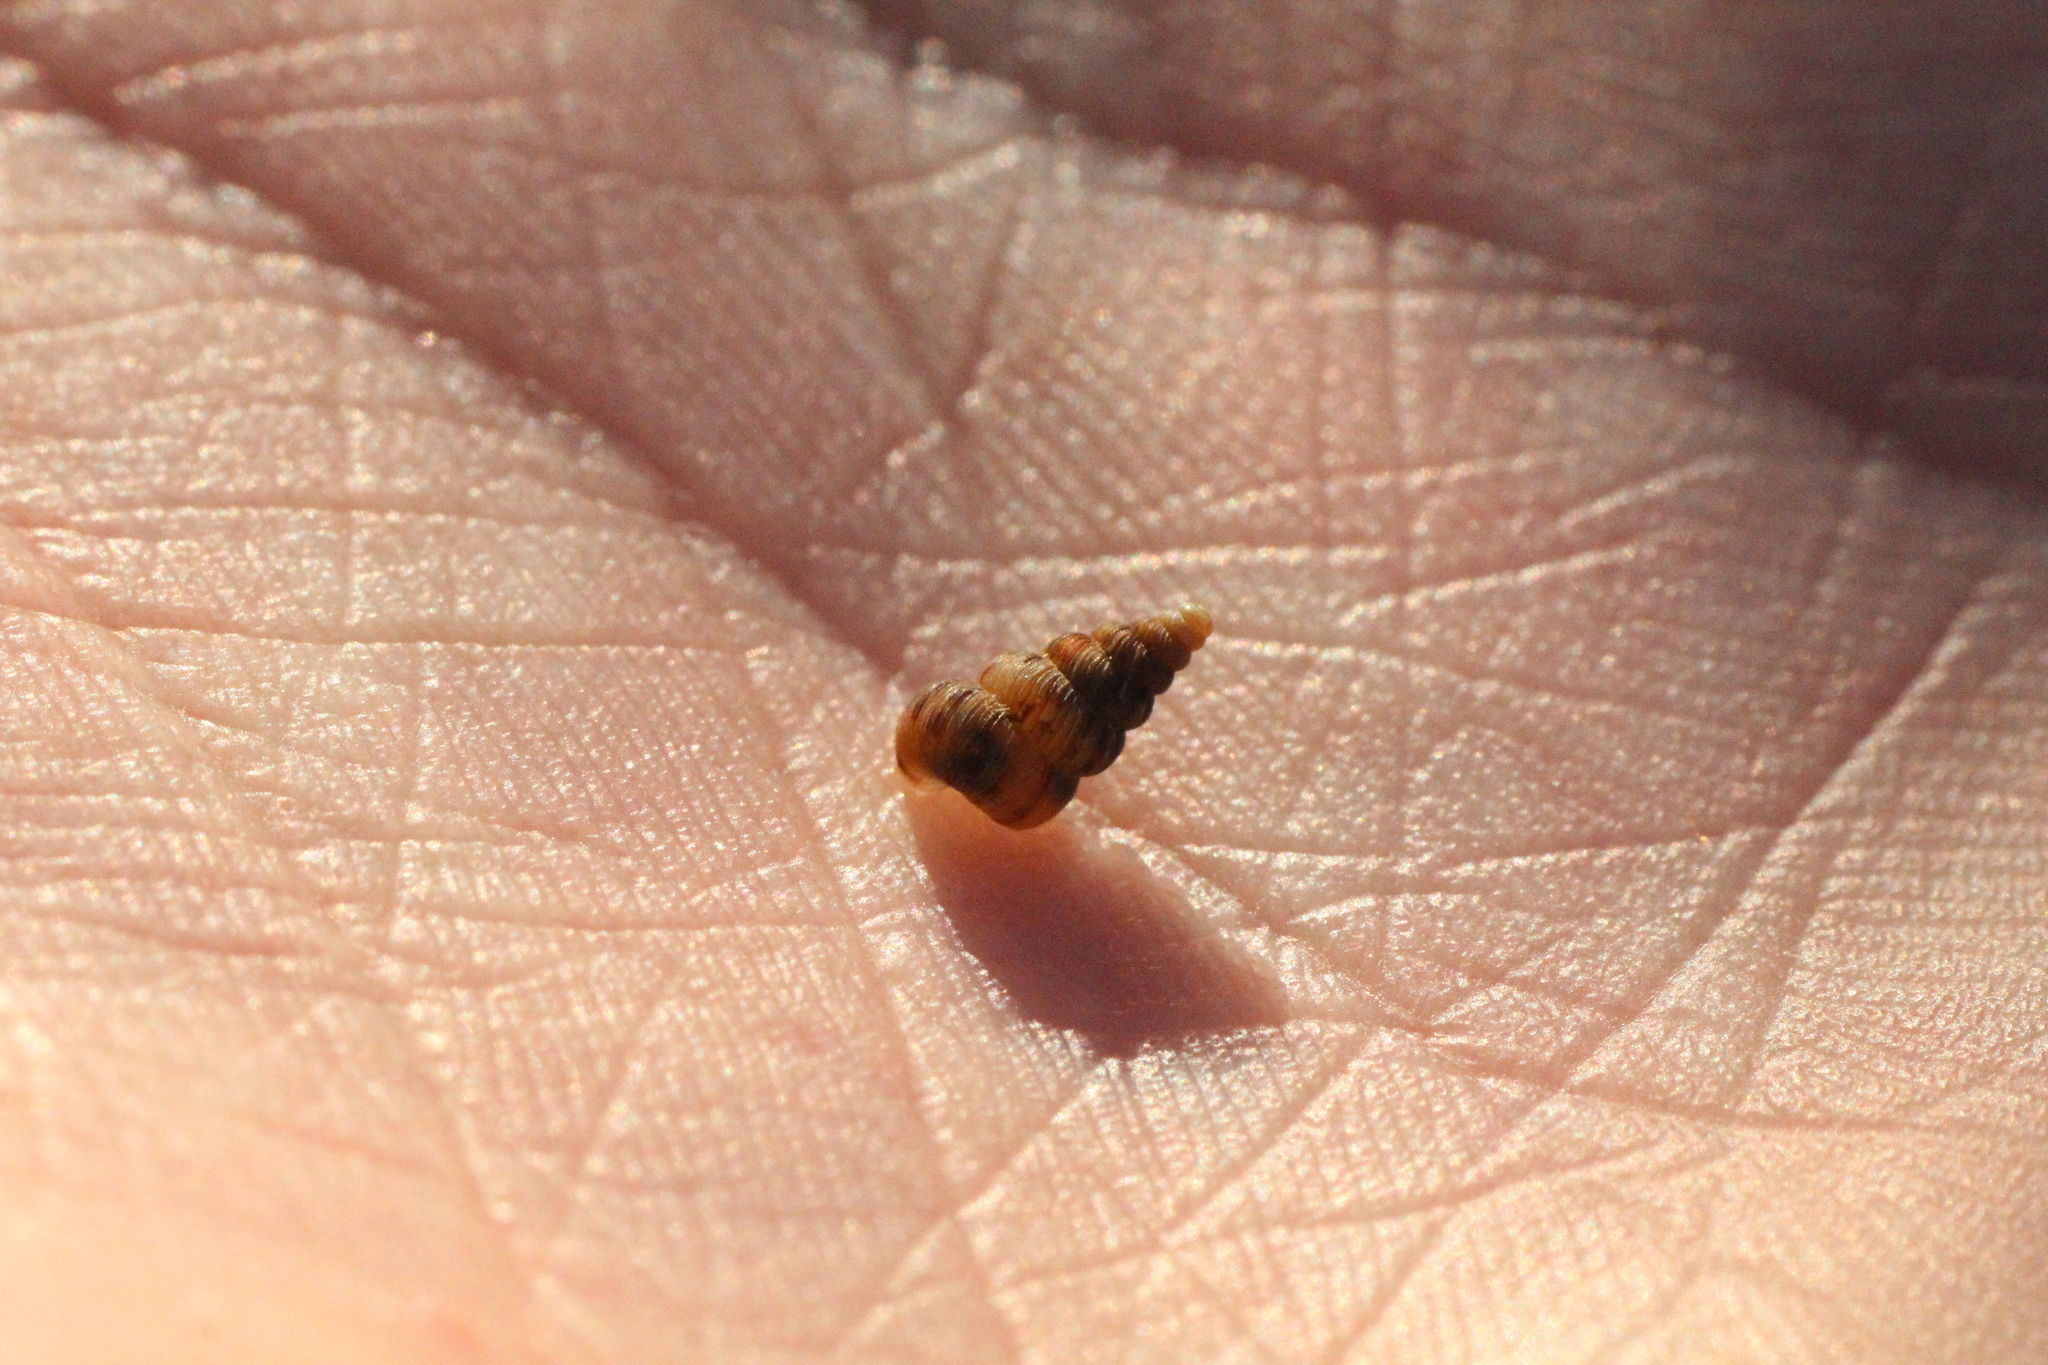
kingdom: Animalia
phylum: Mollusca
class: Gastropoda
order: Architaenioglossa
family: Cochlostomatidae
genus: Cochlostoma
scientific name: Cochlostoma septemspirale
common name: Seven-whorl snail
